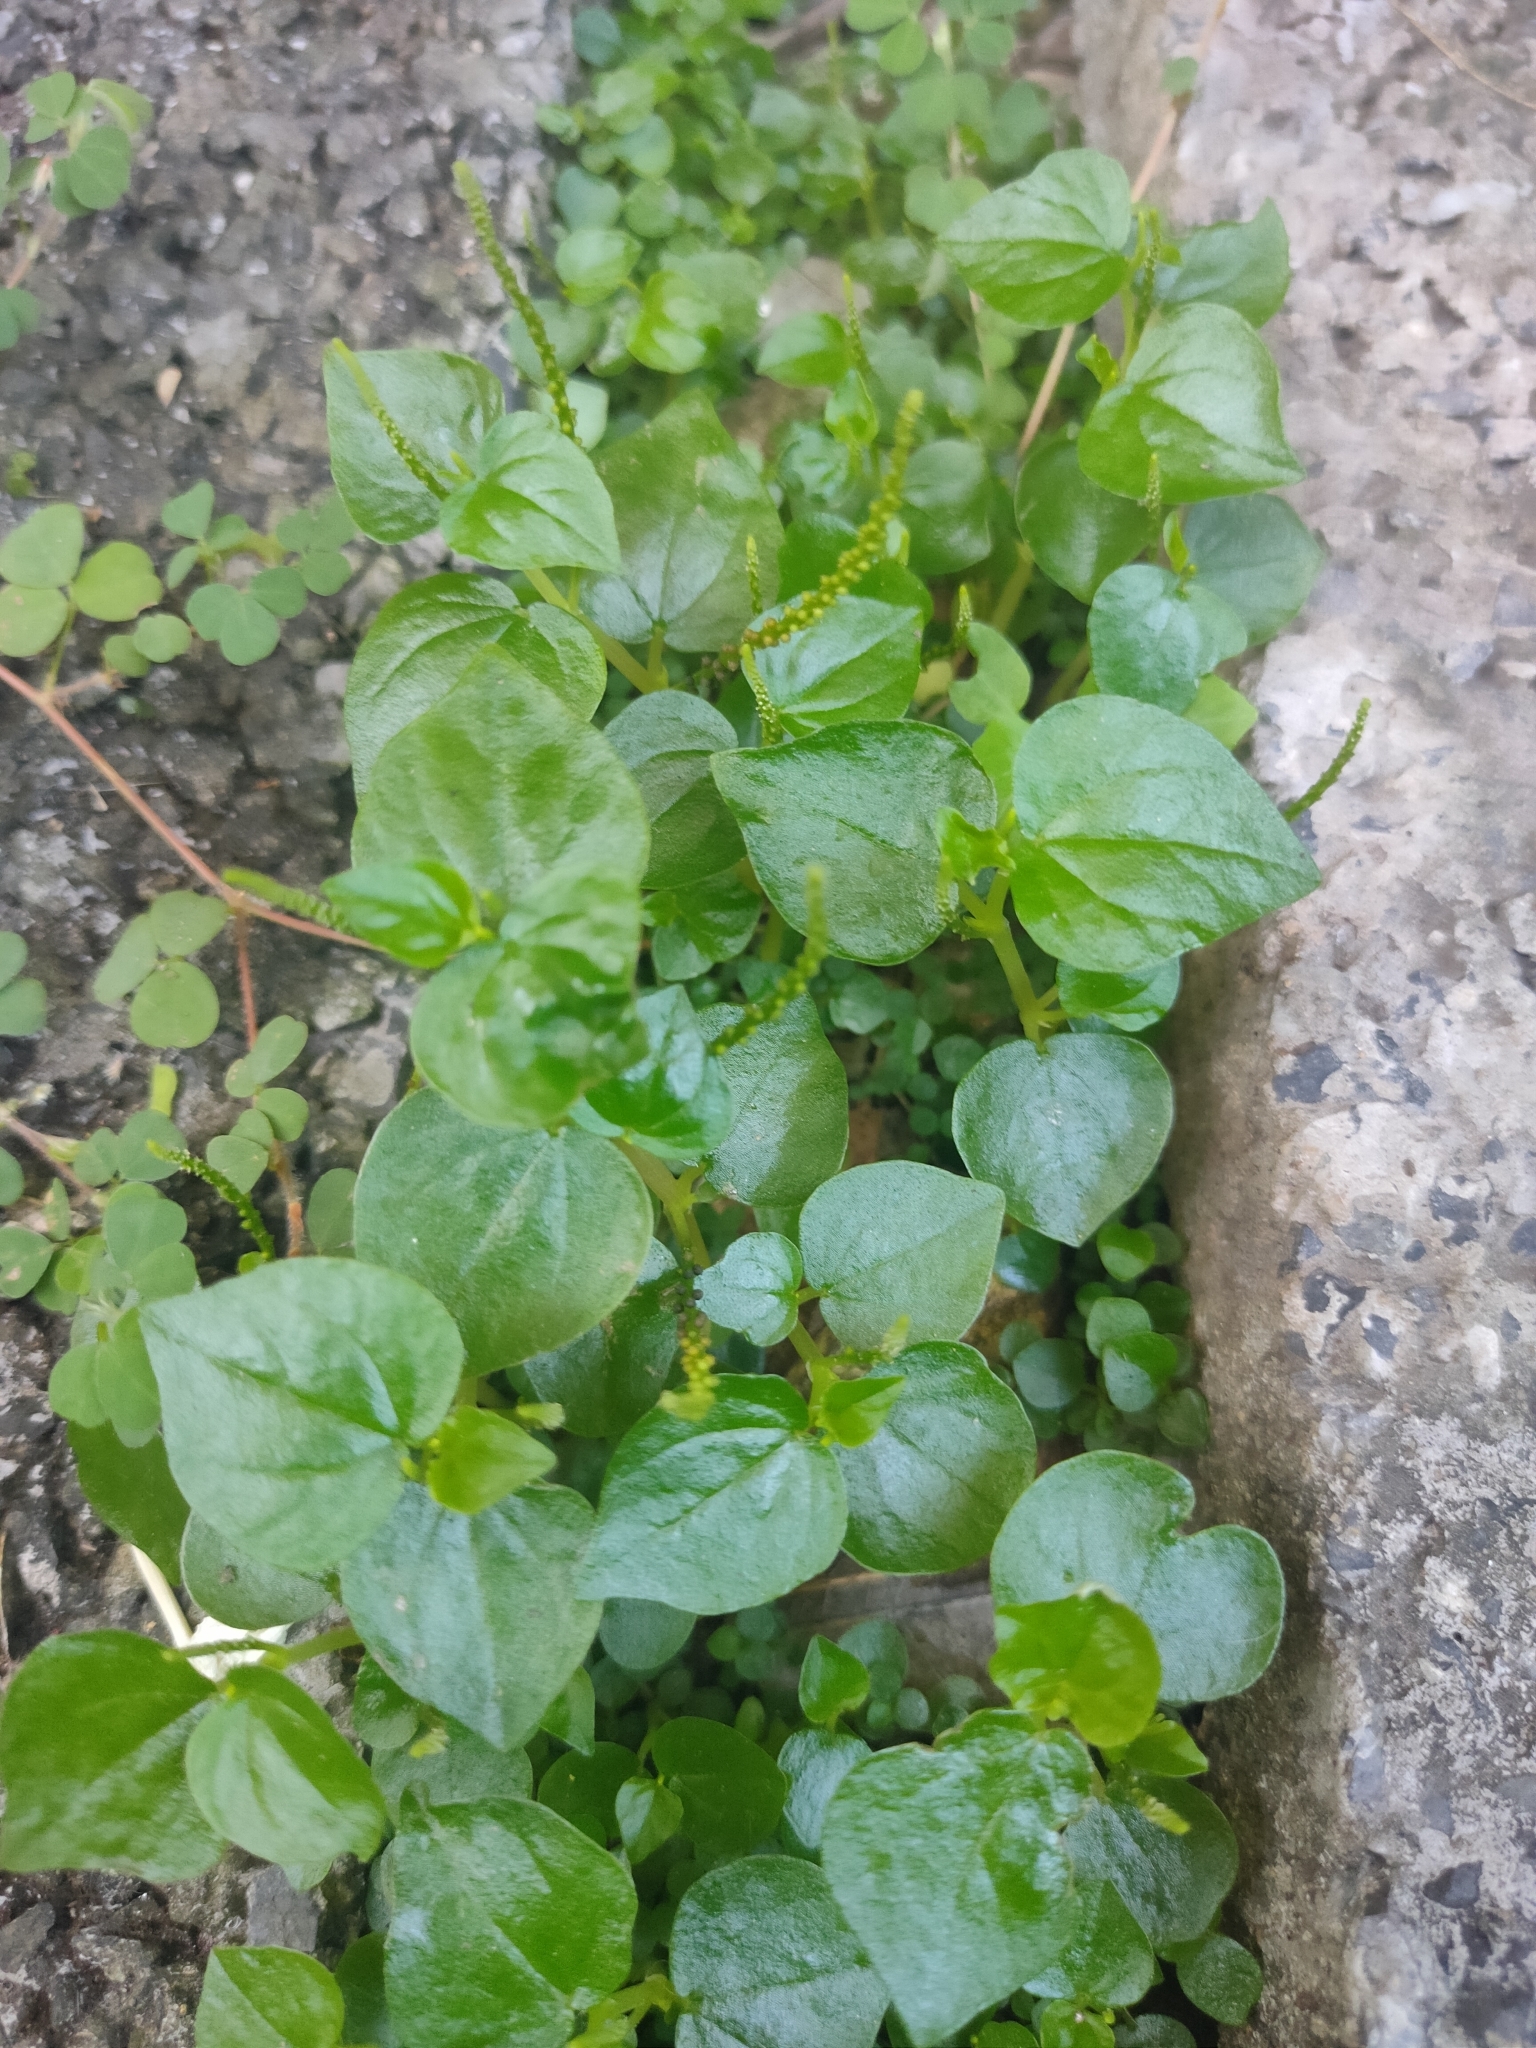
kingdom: Plantae
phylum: Tracheophyta
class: Magnoliopsida
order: Piperales
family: Piperaceae
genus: Peperomia
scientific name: Peperomia pellucida
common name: Man to man
